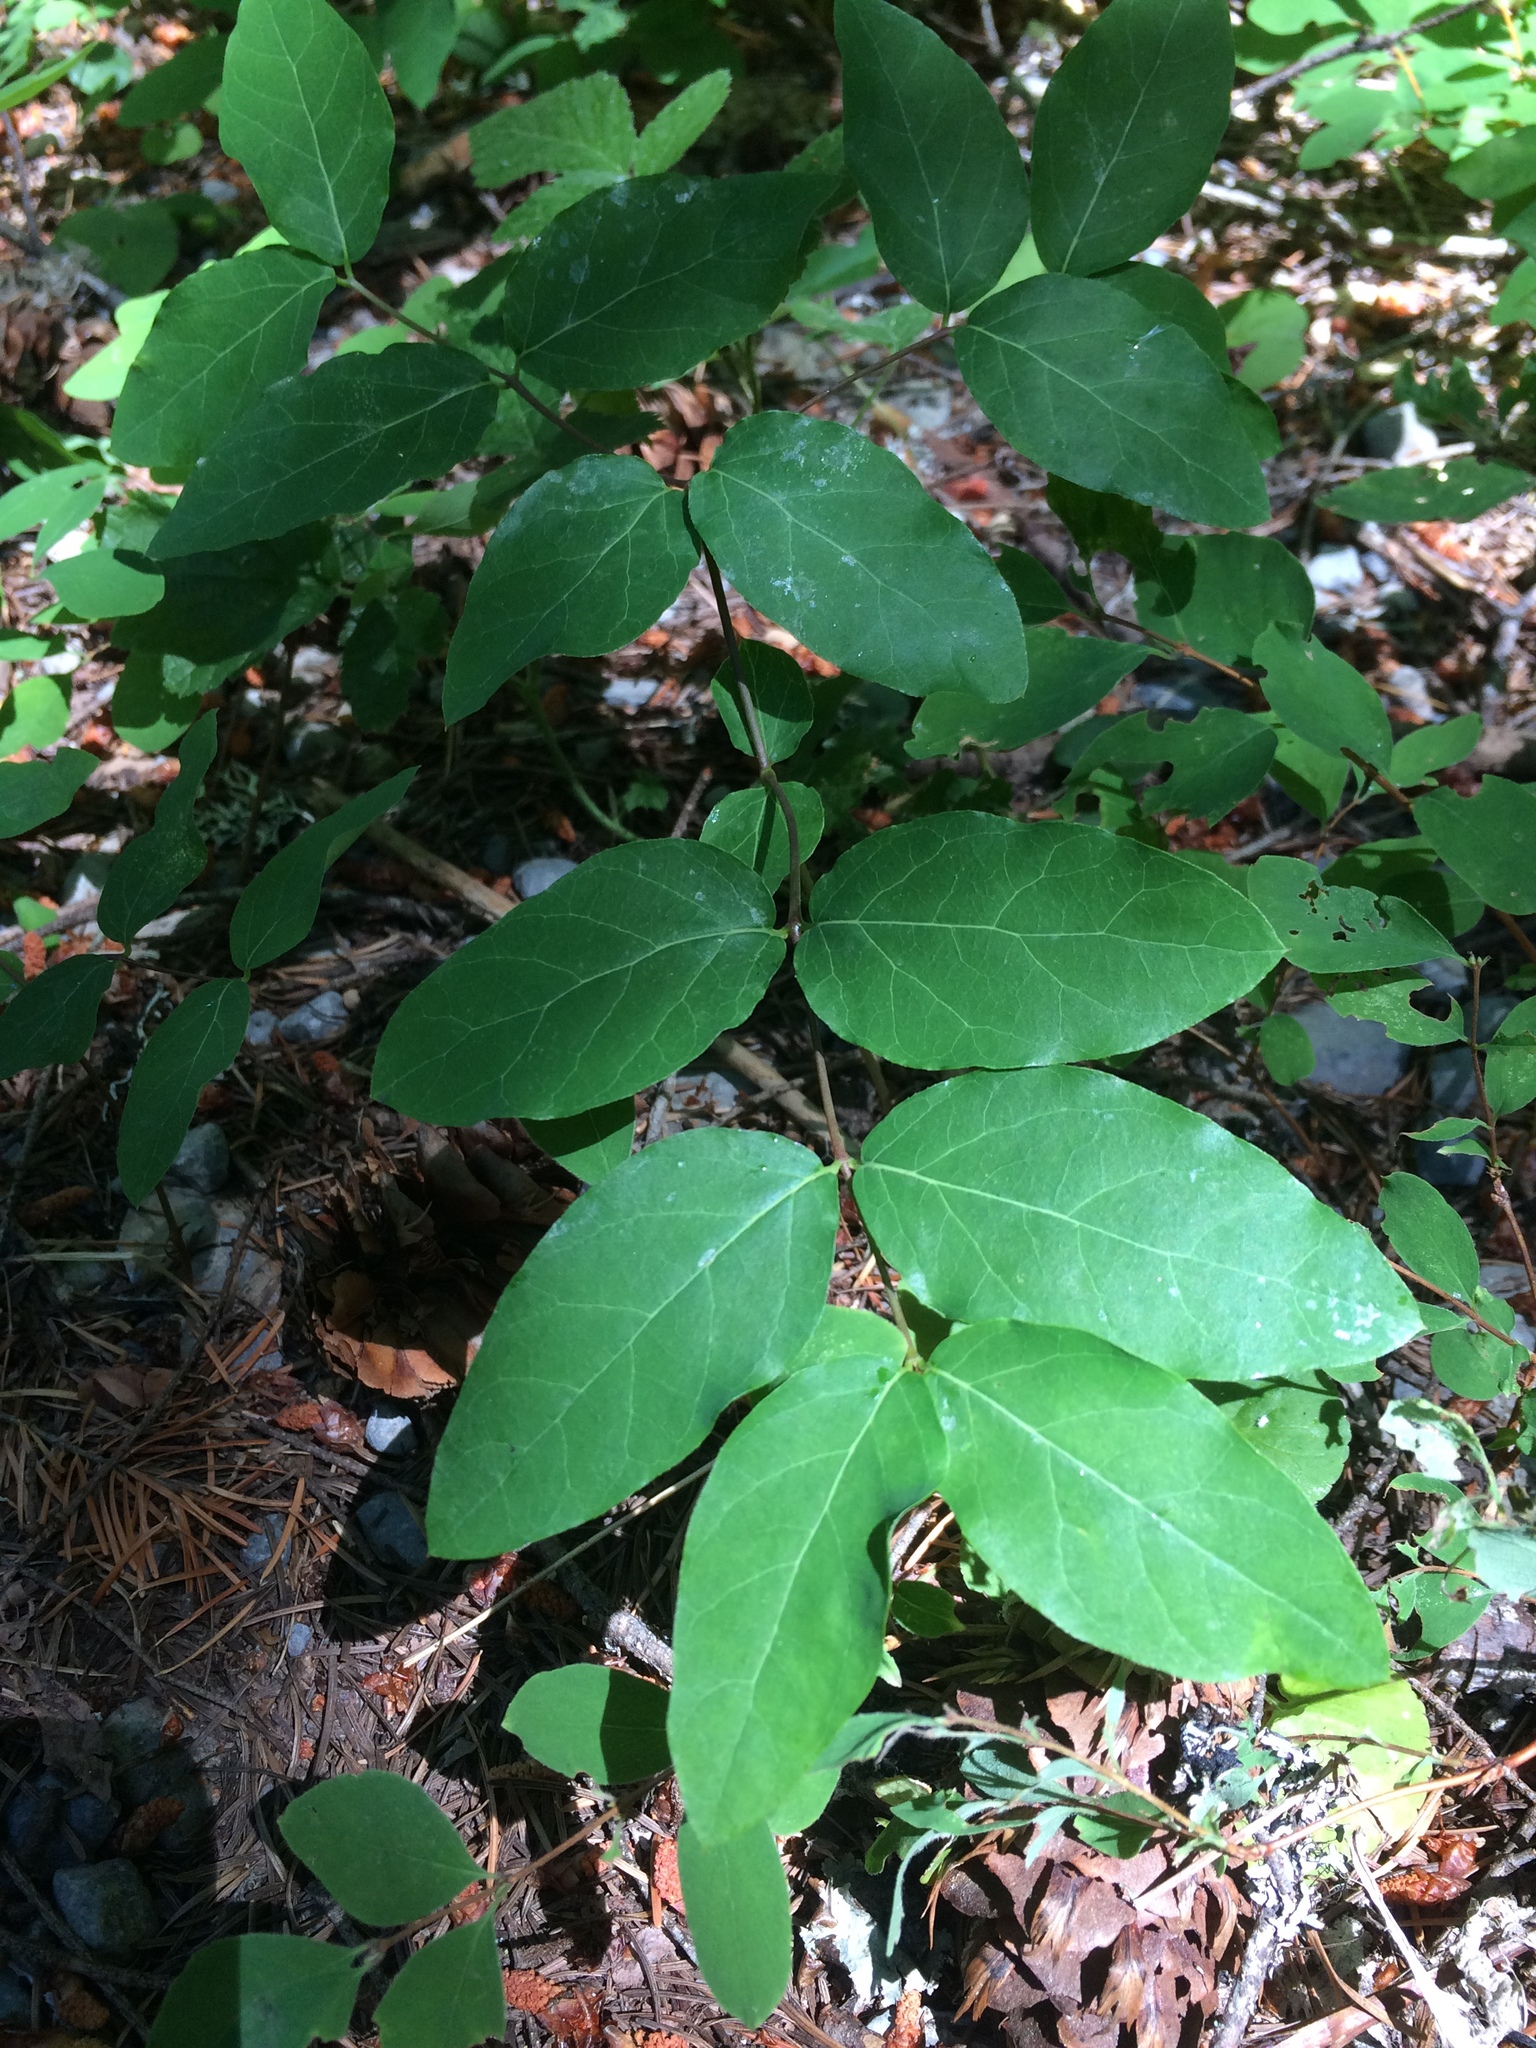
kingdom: Plantae
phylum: Tracheophyta
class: Magnoliopsida
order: Gentianales
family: Apocynaceae
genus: Apocynum
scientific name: Apocynum androsaemifolium
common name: Spreading dogbane
